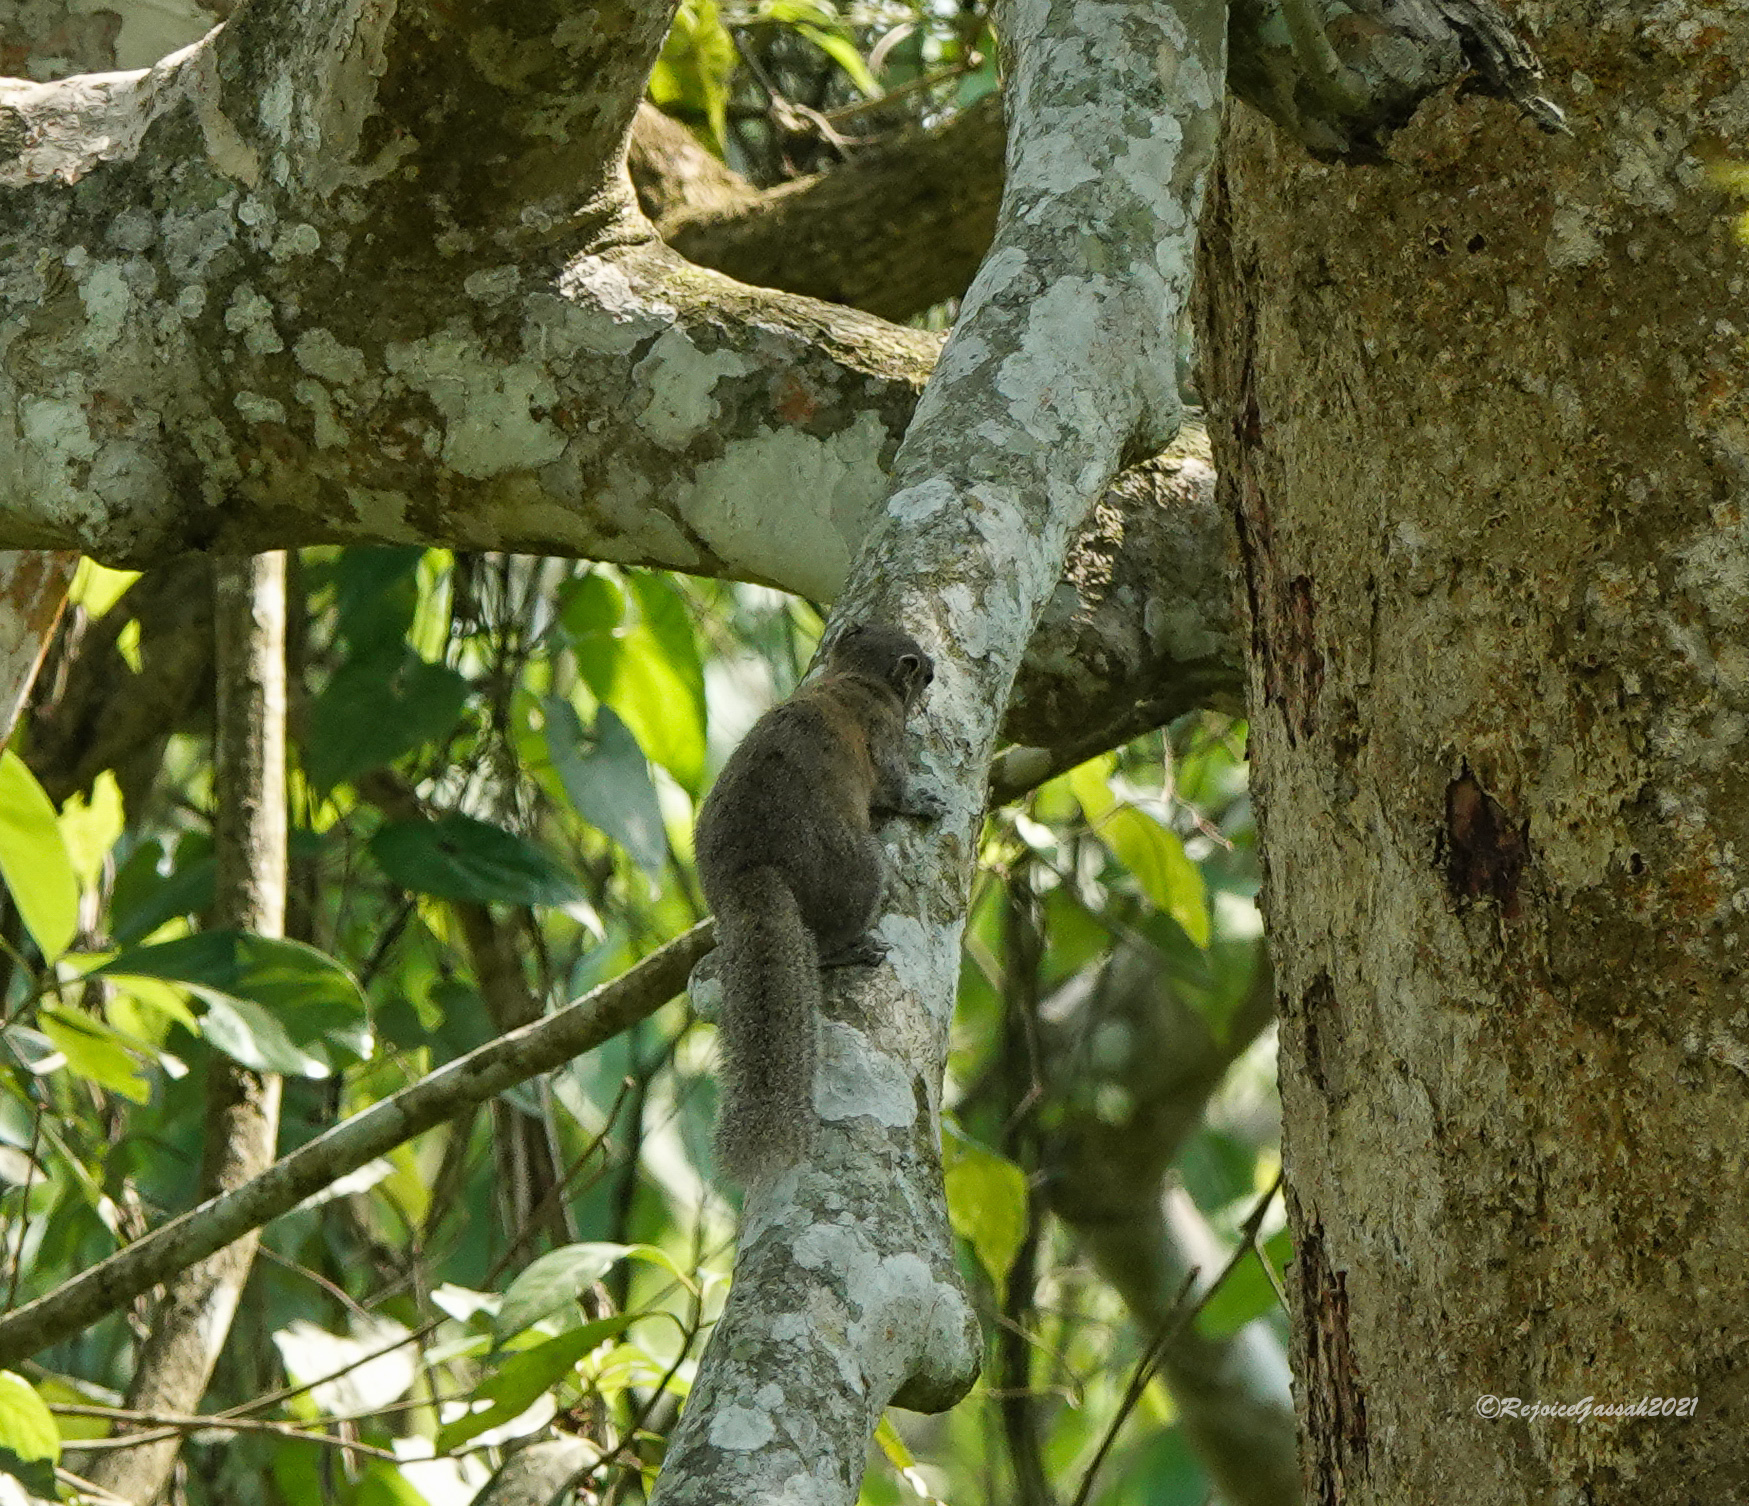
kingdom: Animalia
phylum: Chordata
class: Mammalia
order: Rodentia
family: Sciuridae
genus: Callosciurus
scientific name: Callosciurus pygerythrus
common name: Irrawaddy squirrel
